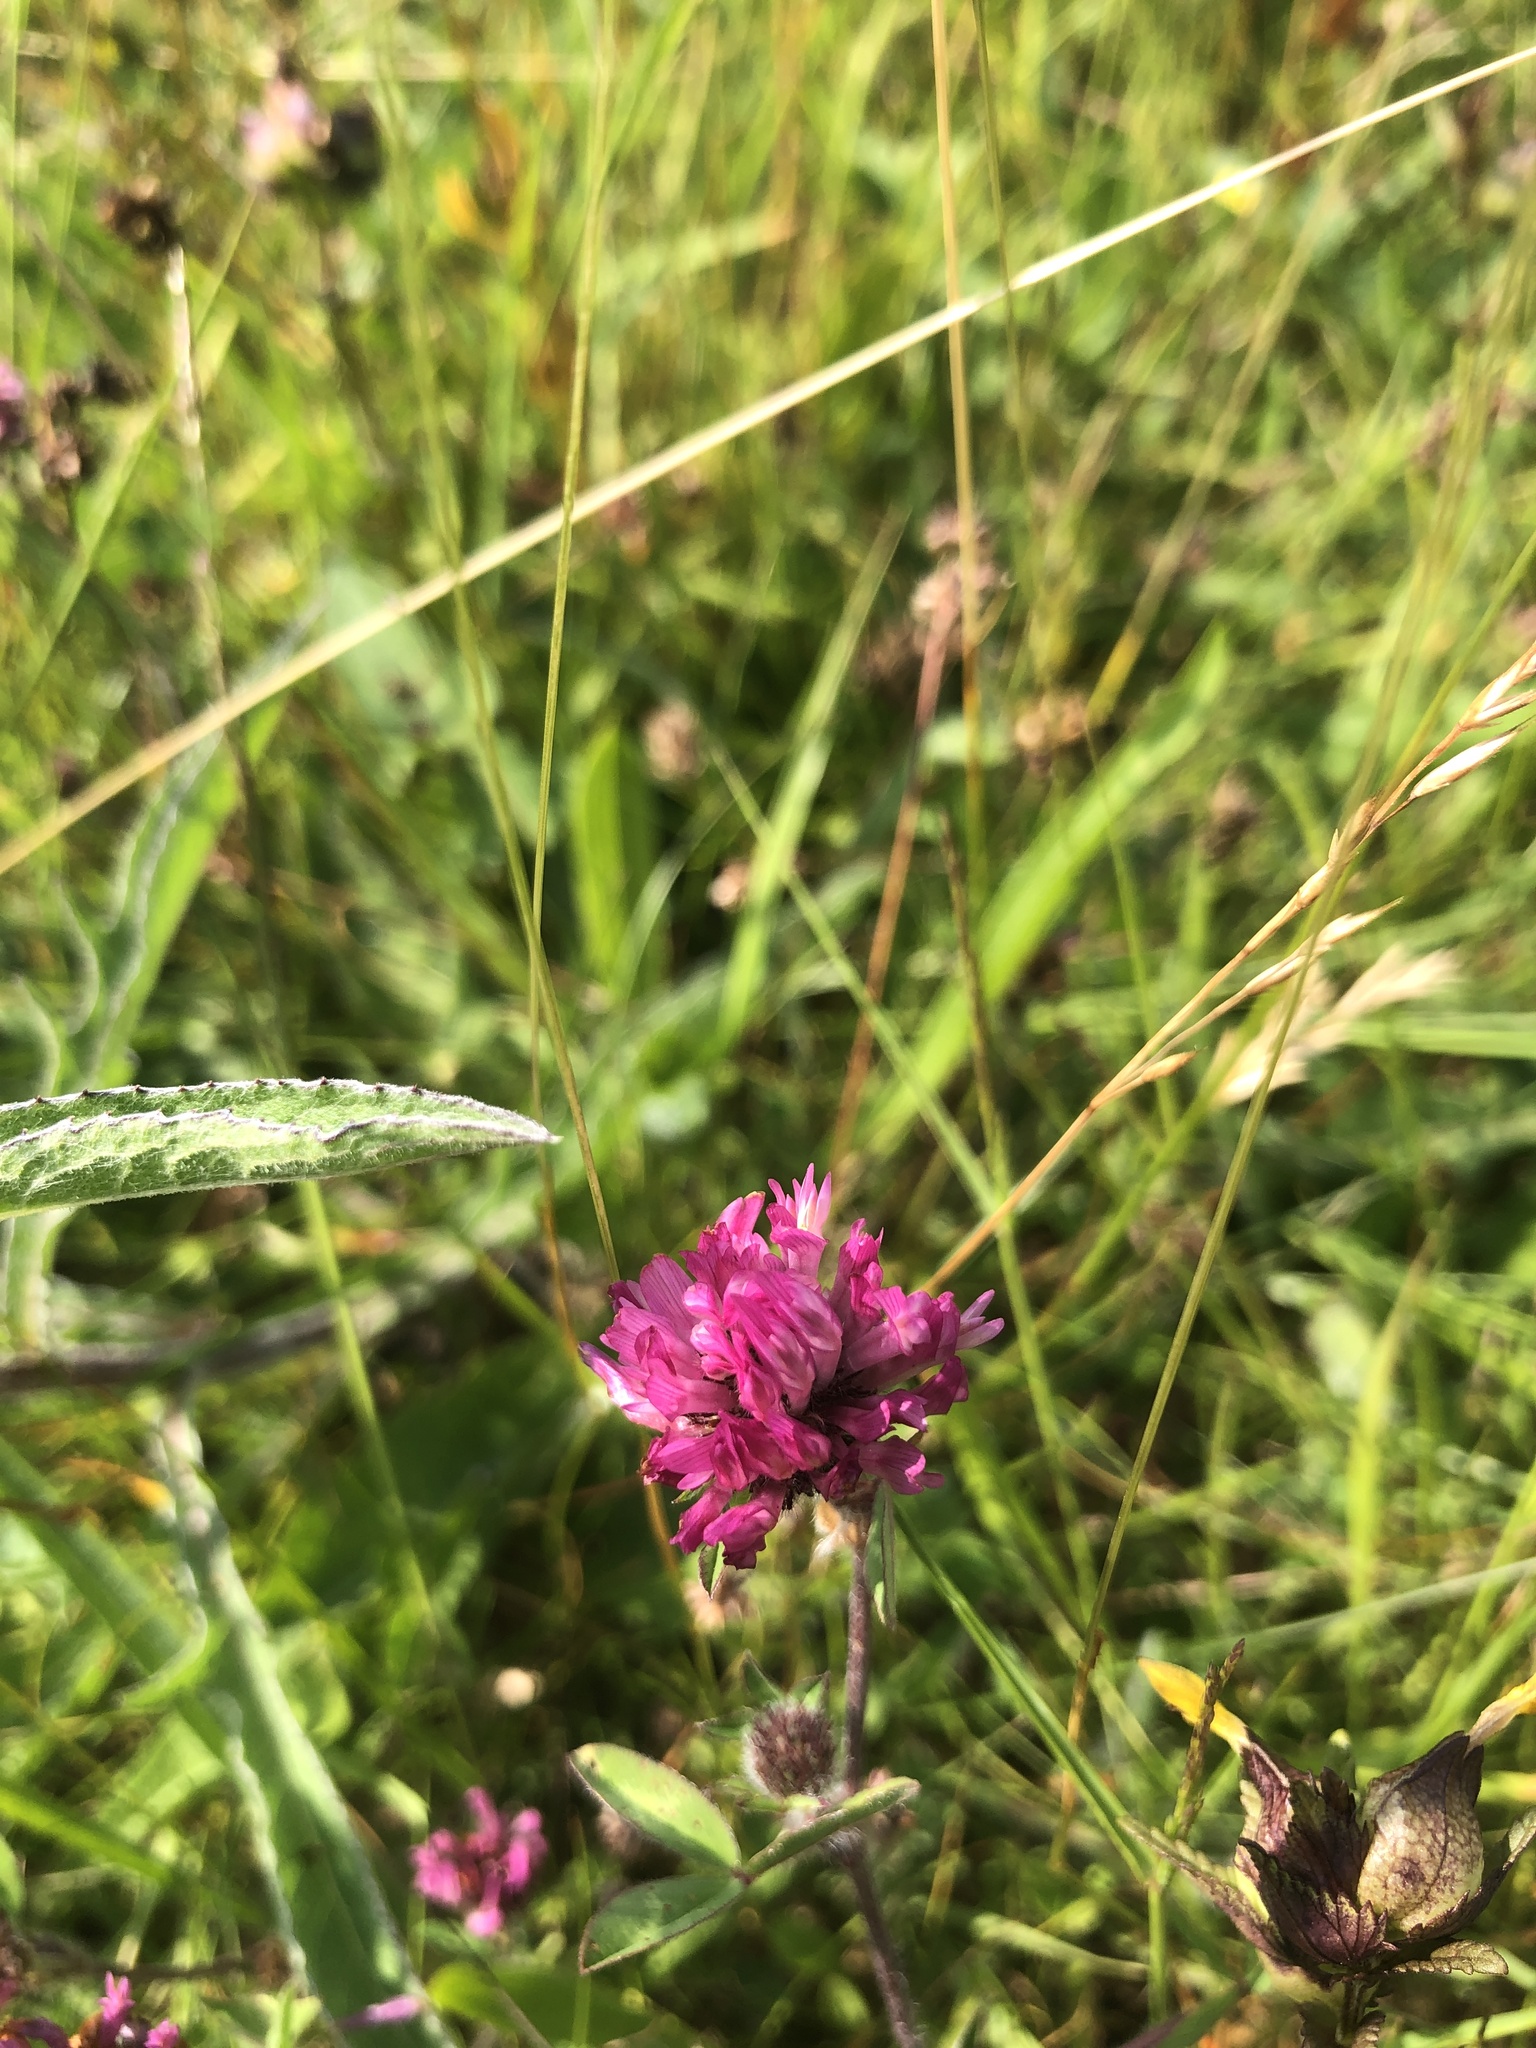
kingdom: Plantae
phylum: Tracheophyta
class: Magnoliopsida
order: Fabales
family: Fabaceae
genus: Trifolium
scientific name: Trifolium pratense
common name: Red clover
